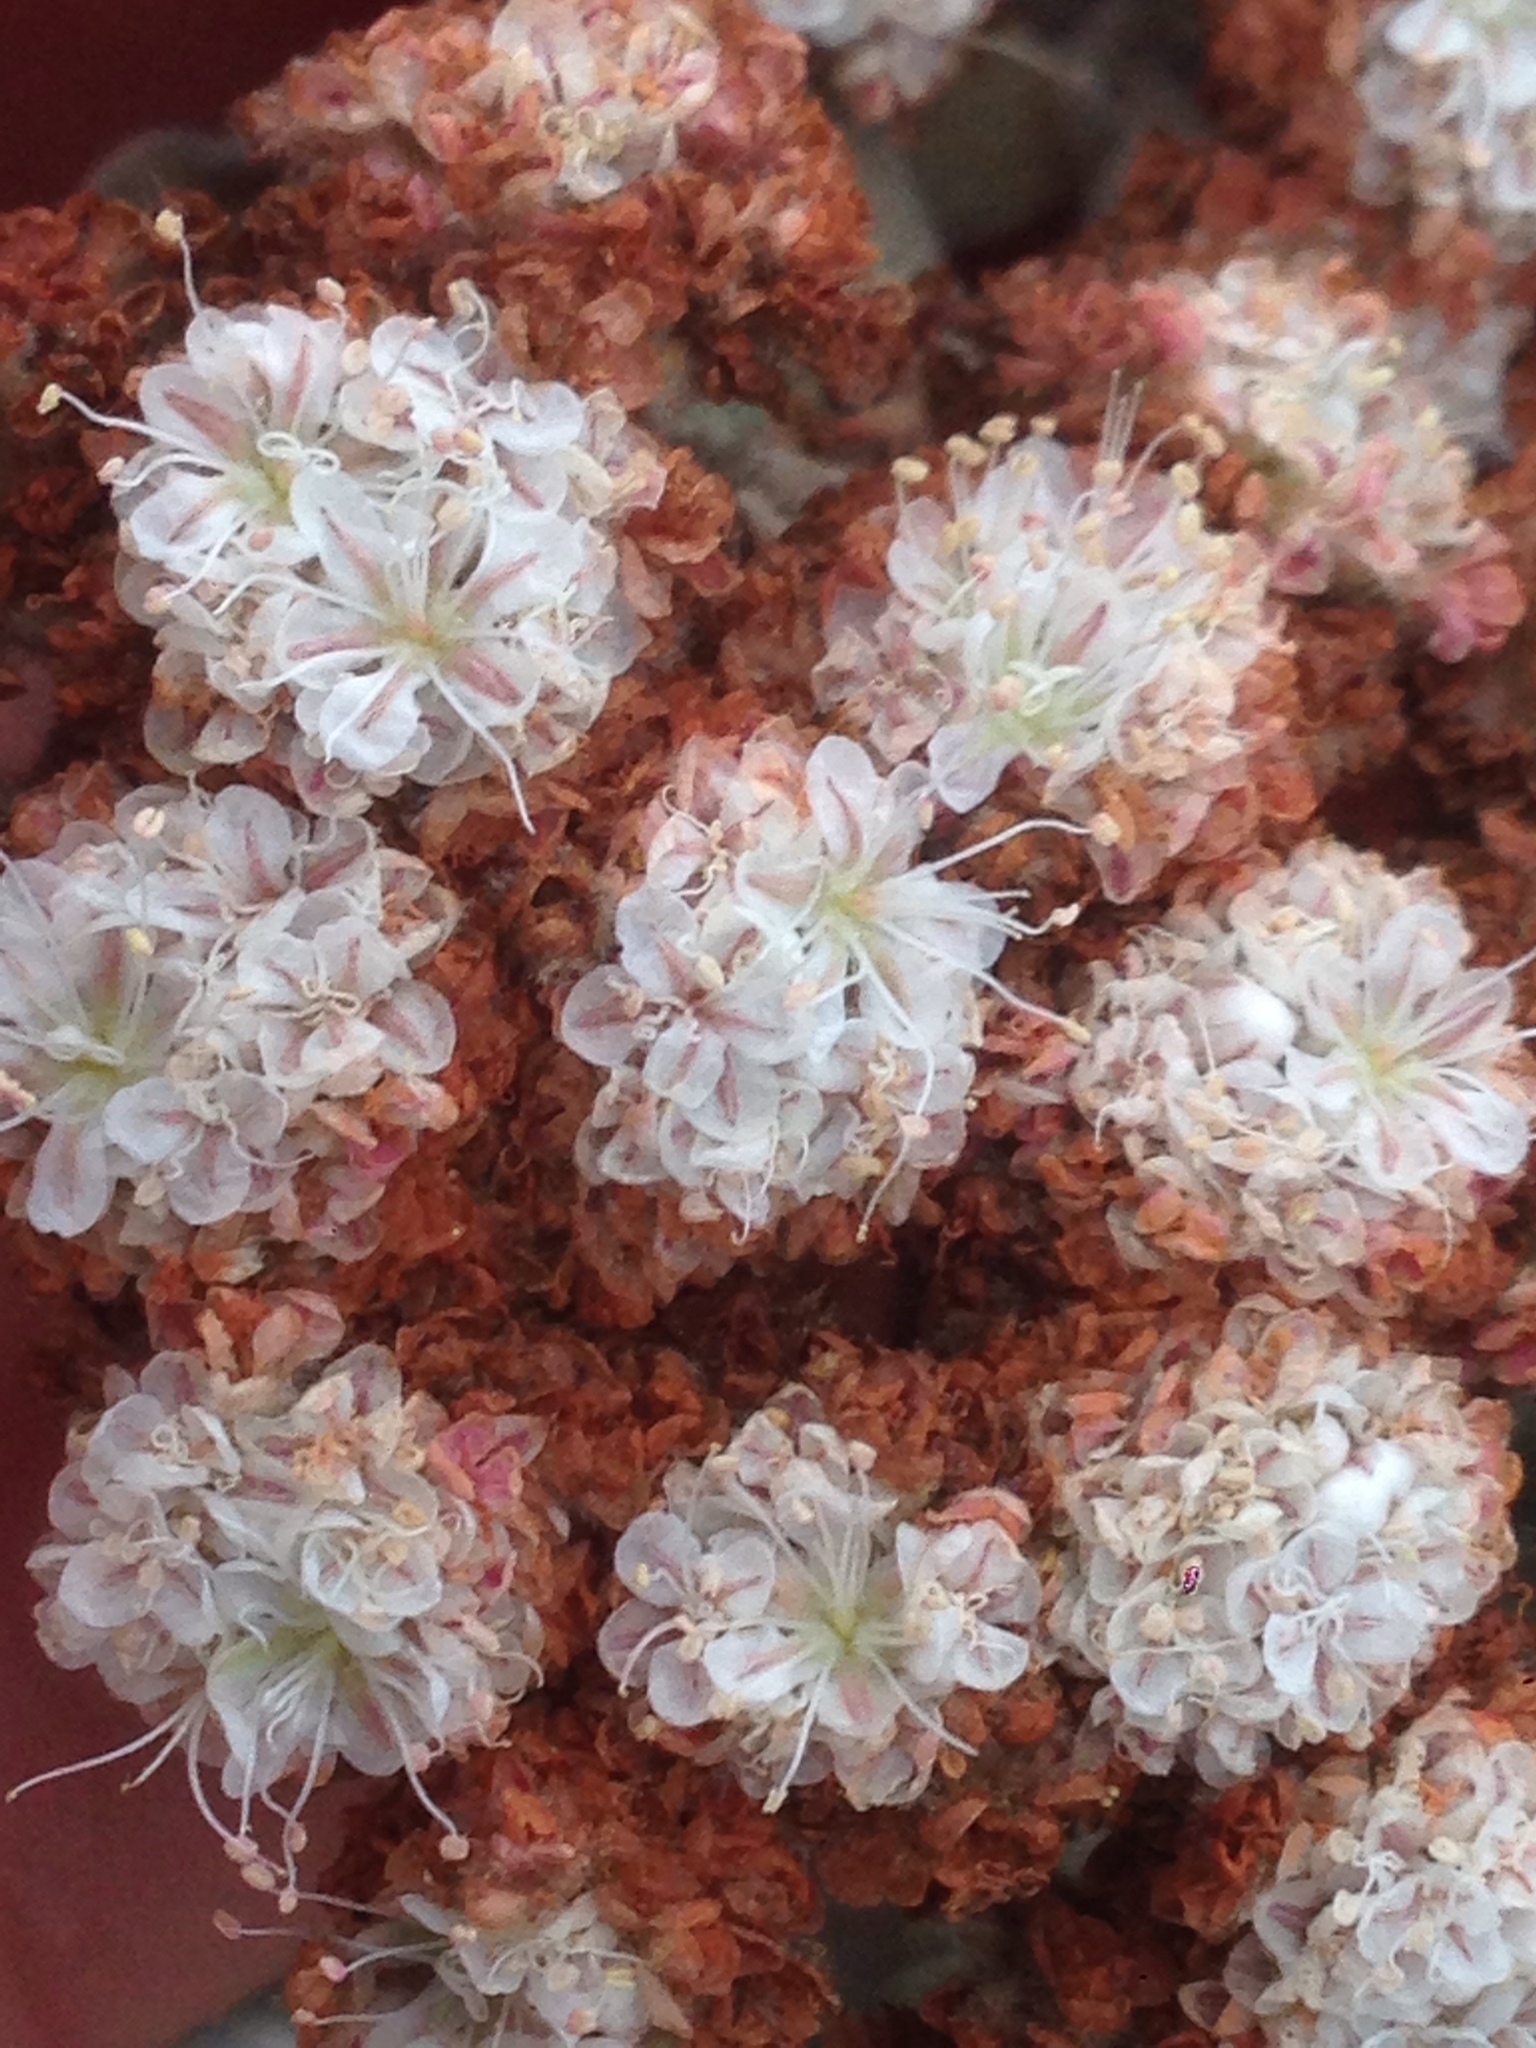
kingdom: Plantae
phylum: Tracheophyta
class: Magnoliopsida
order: Caryophyllales
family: Polygonaceae
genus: Eriogonum
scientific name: Eriogonum giganteum
